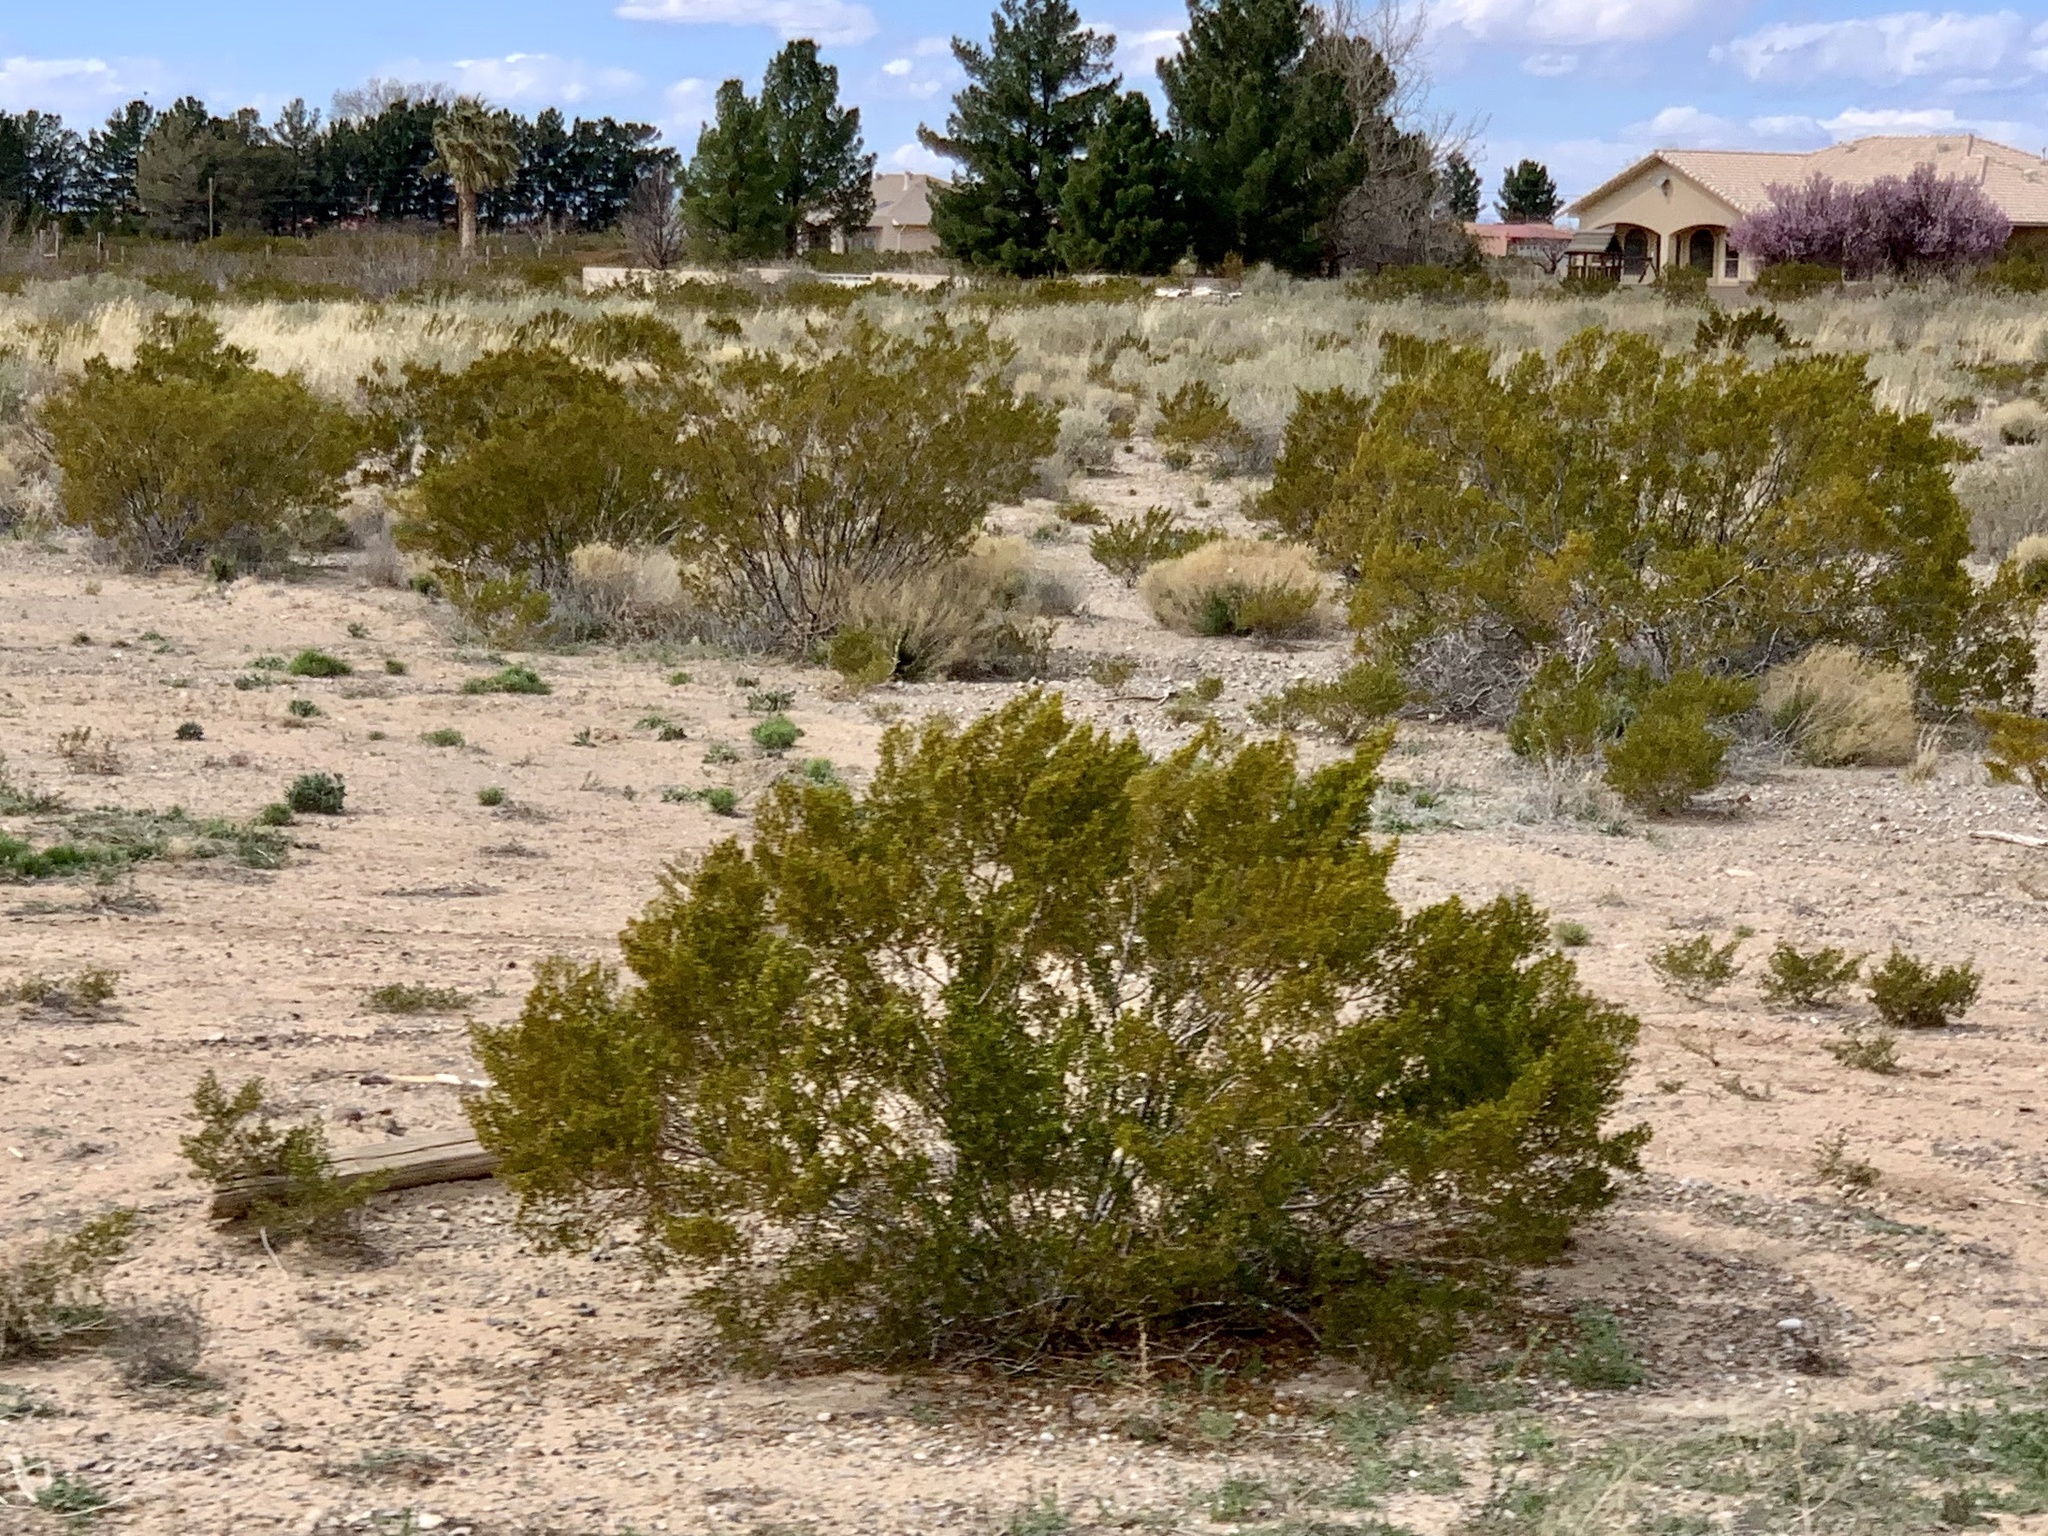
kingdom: Plantae
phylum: Tracheophyta
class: Magnoliopsida
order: Zygophyllales
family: Zygophyllaceae
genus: Larrea
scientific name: Larrea tridentata
